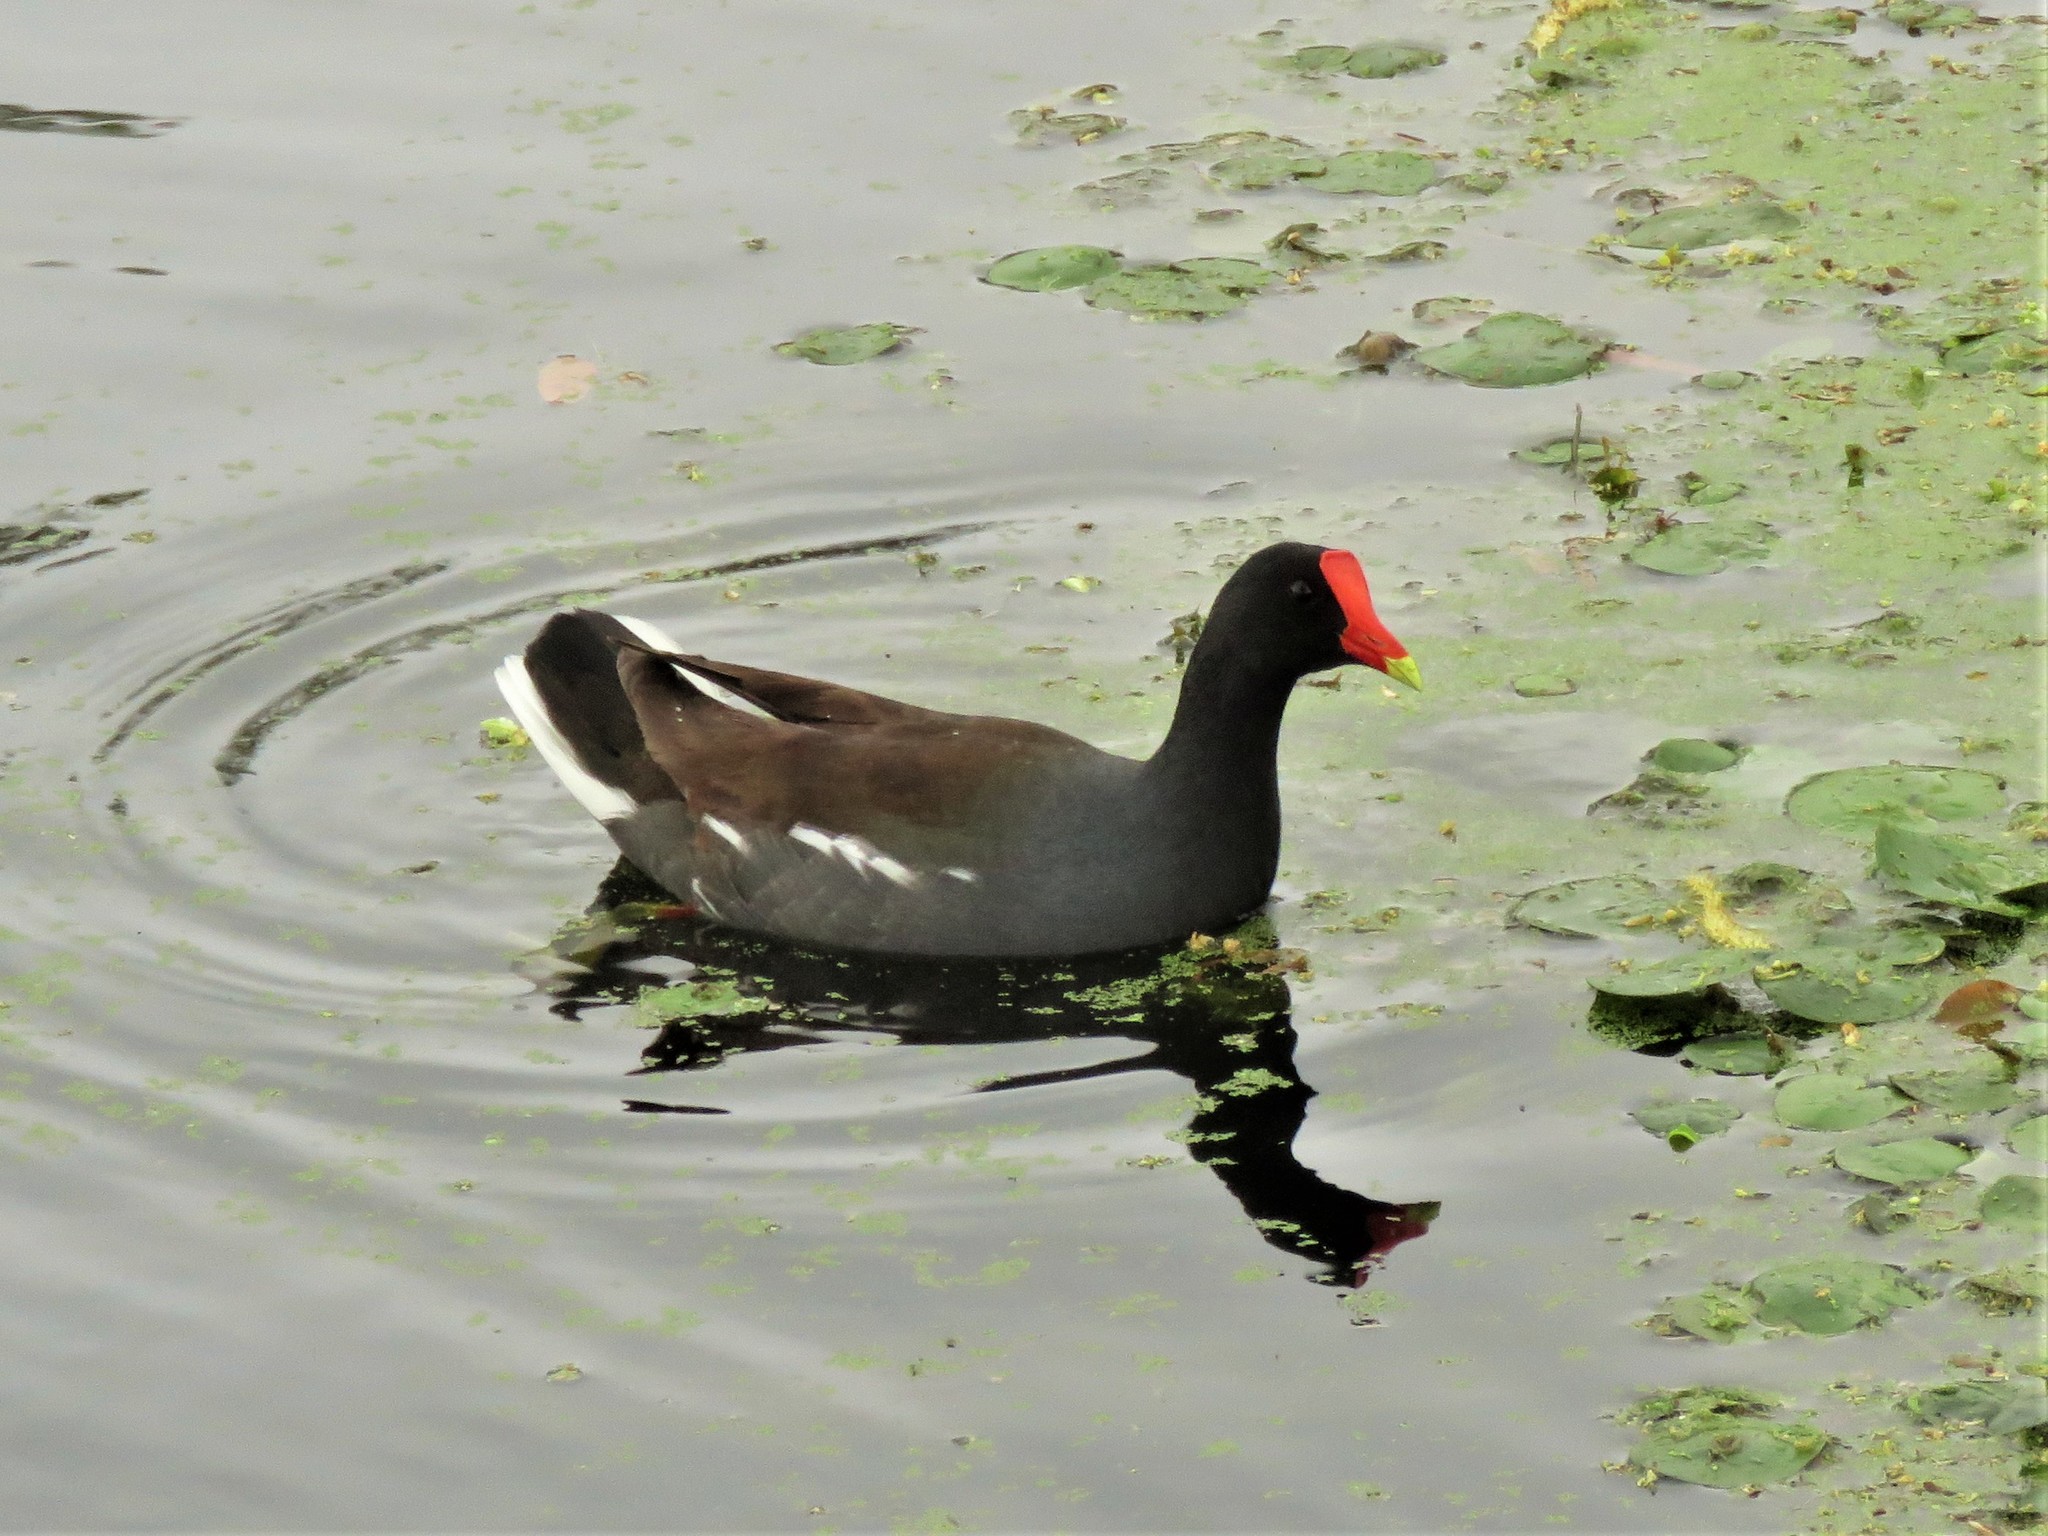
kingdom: Animalia
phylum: Chordata
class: Aves
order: Gruiformes
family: Rallidae
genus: Gallinula
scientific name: Gallinula chloropus
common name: Common moorhen
